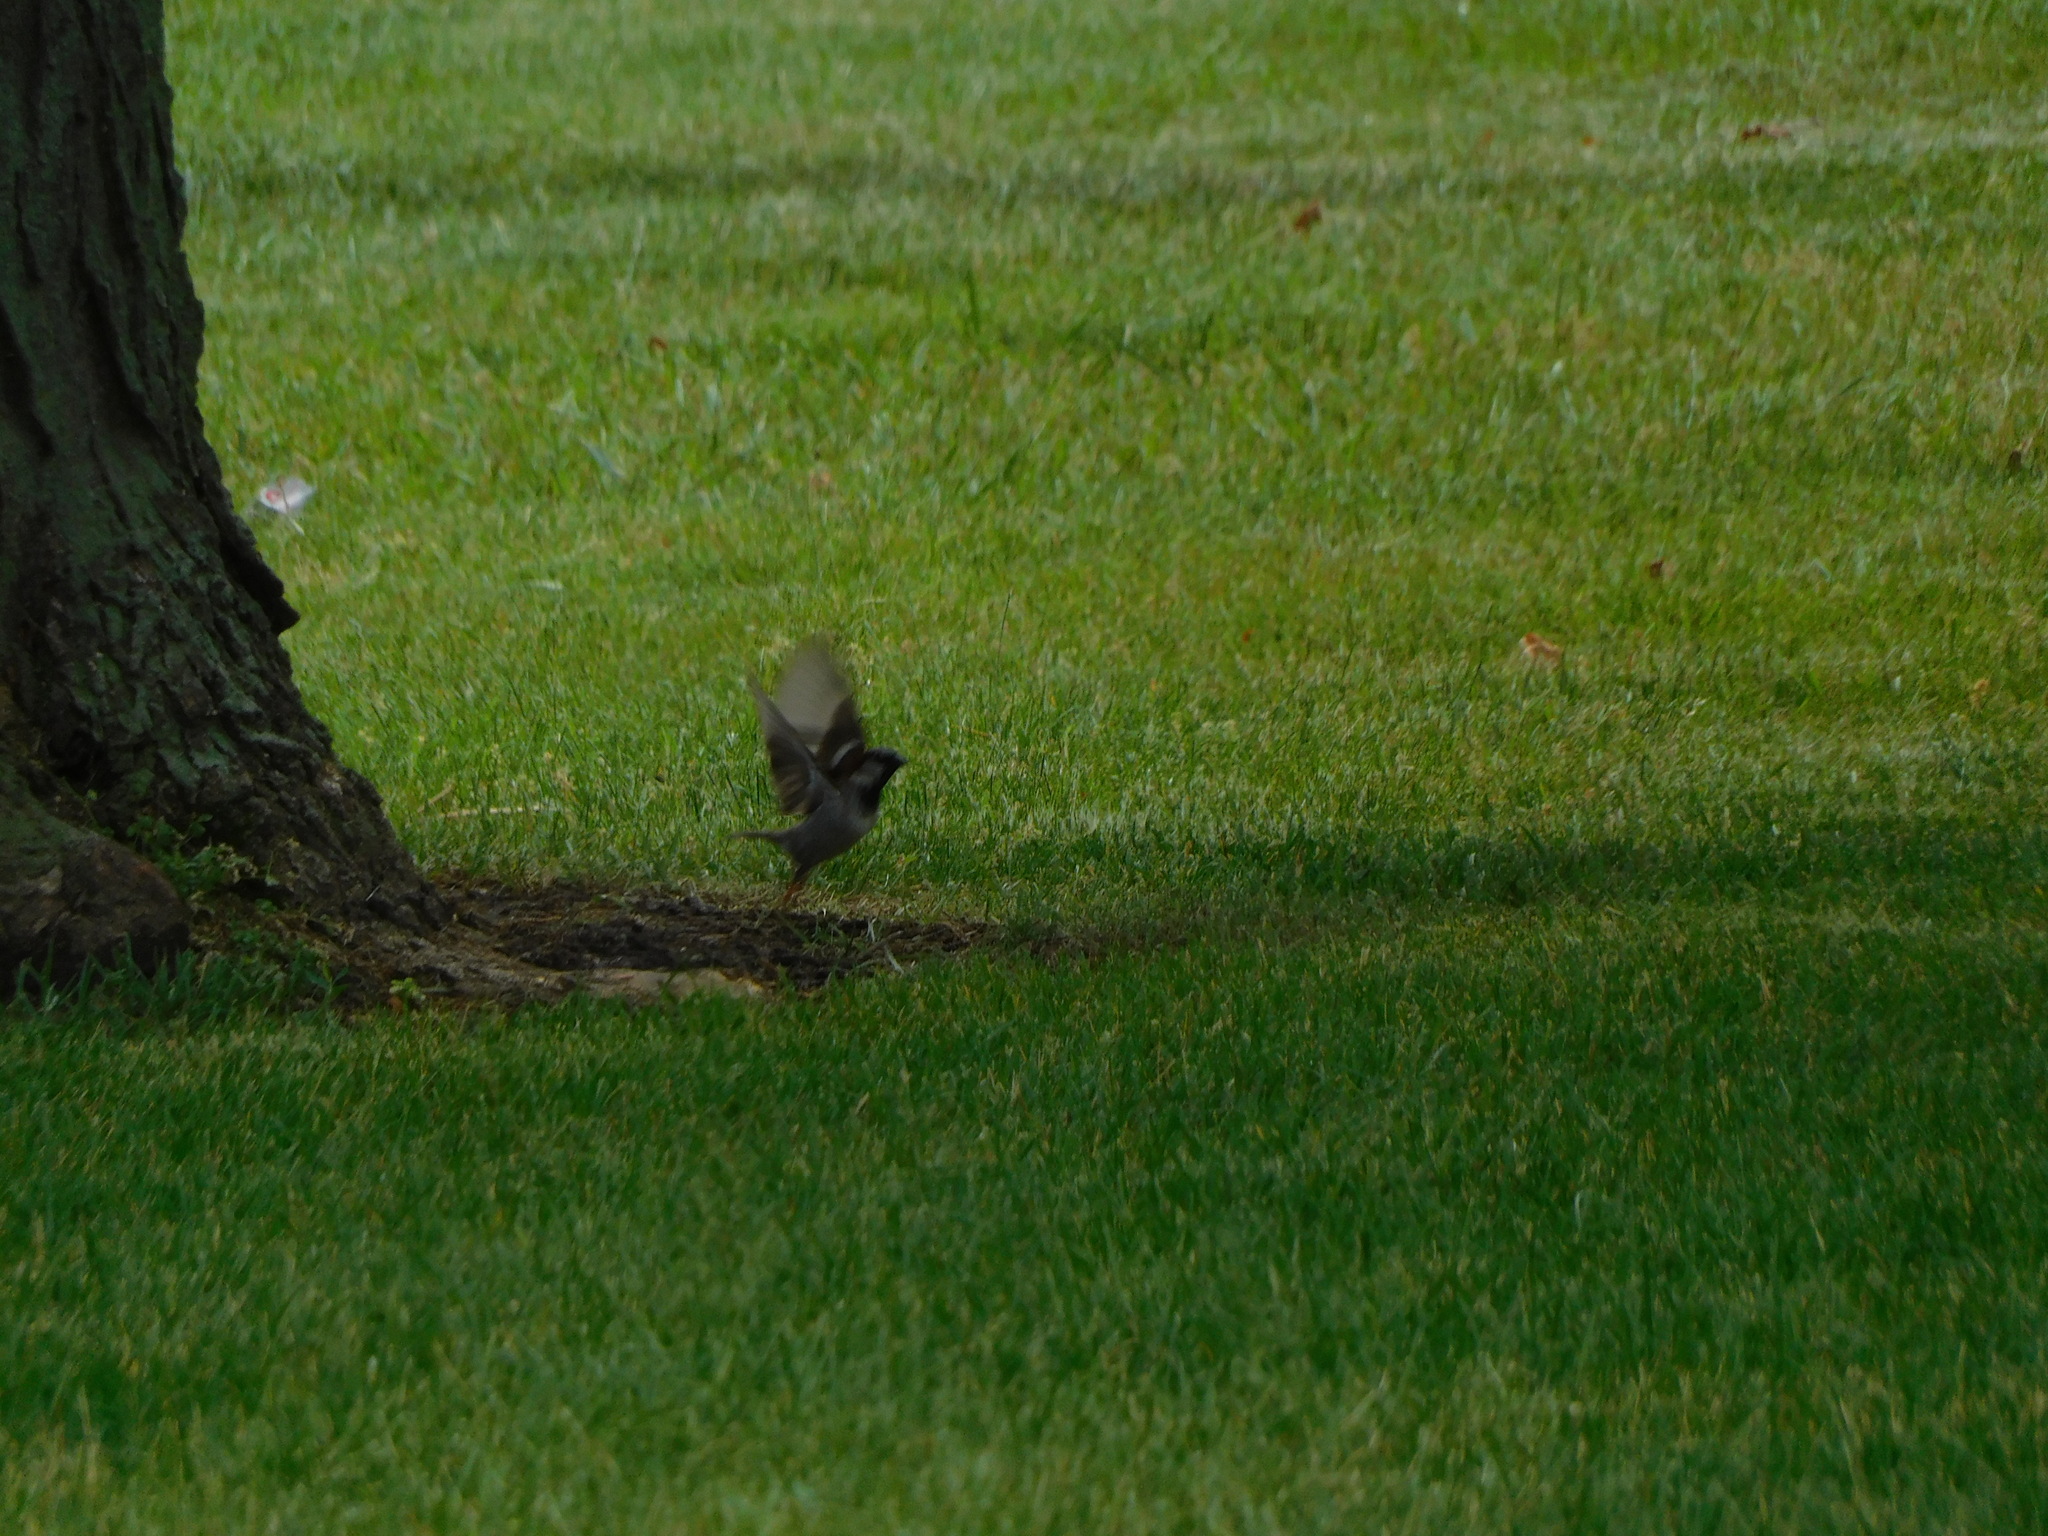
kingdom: Animalia
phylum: Chordata
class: Aves
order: Passeriformes
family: Passeridae
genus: Passer
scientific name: Passer domesticus
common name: House sparrow
